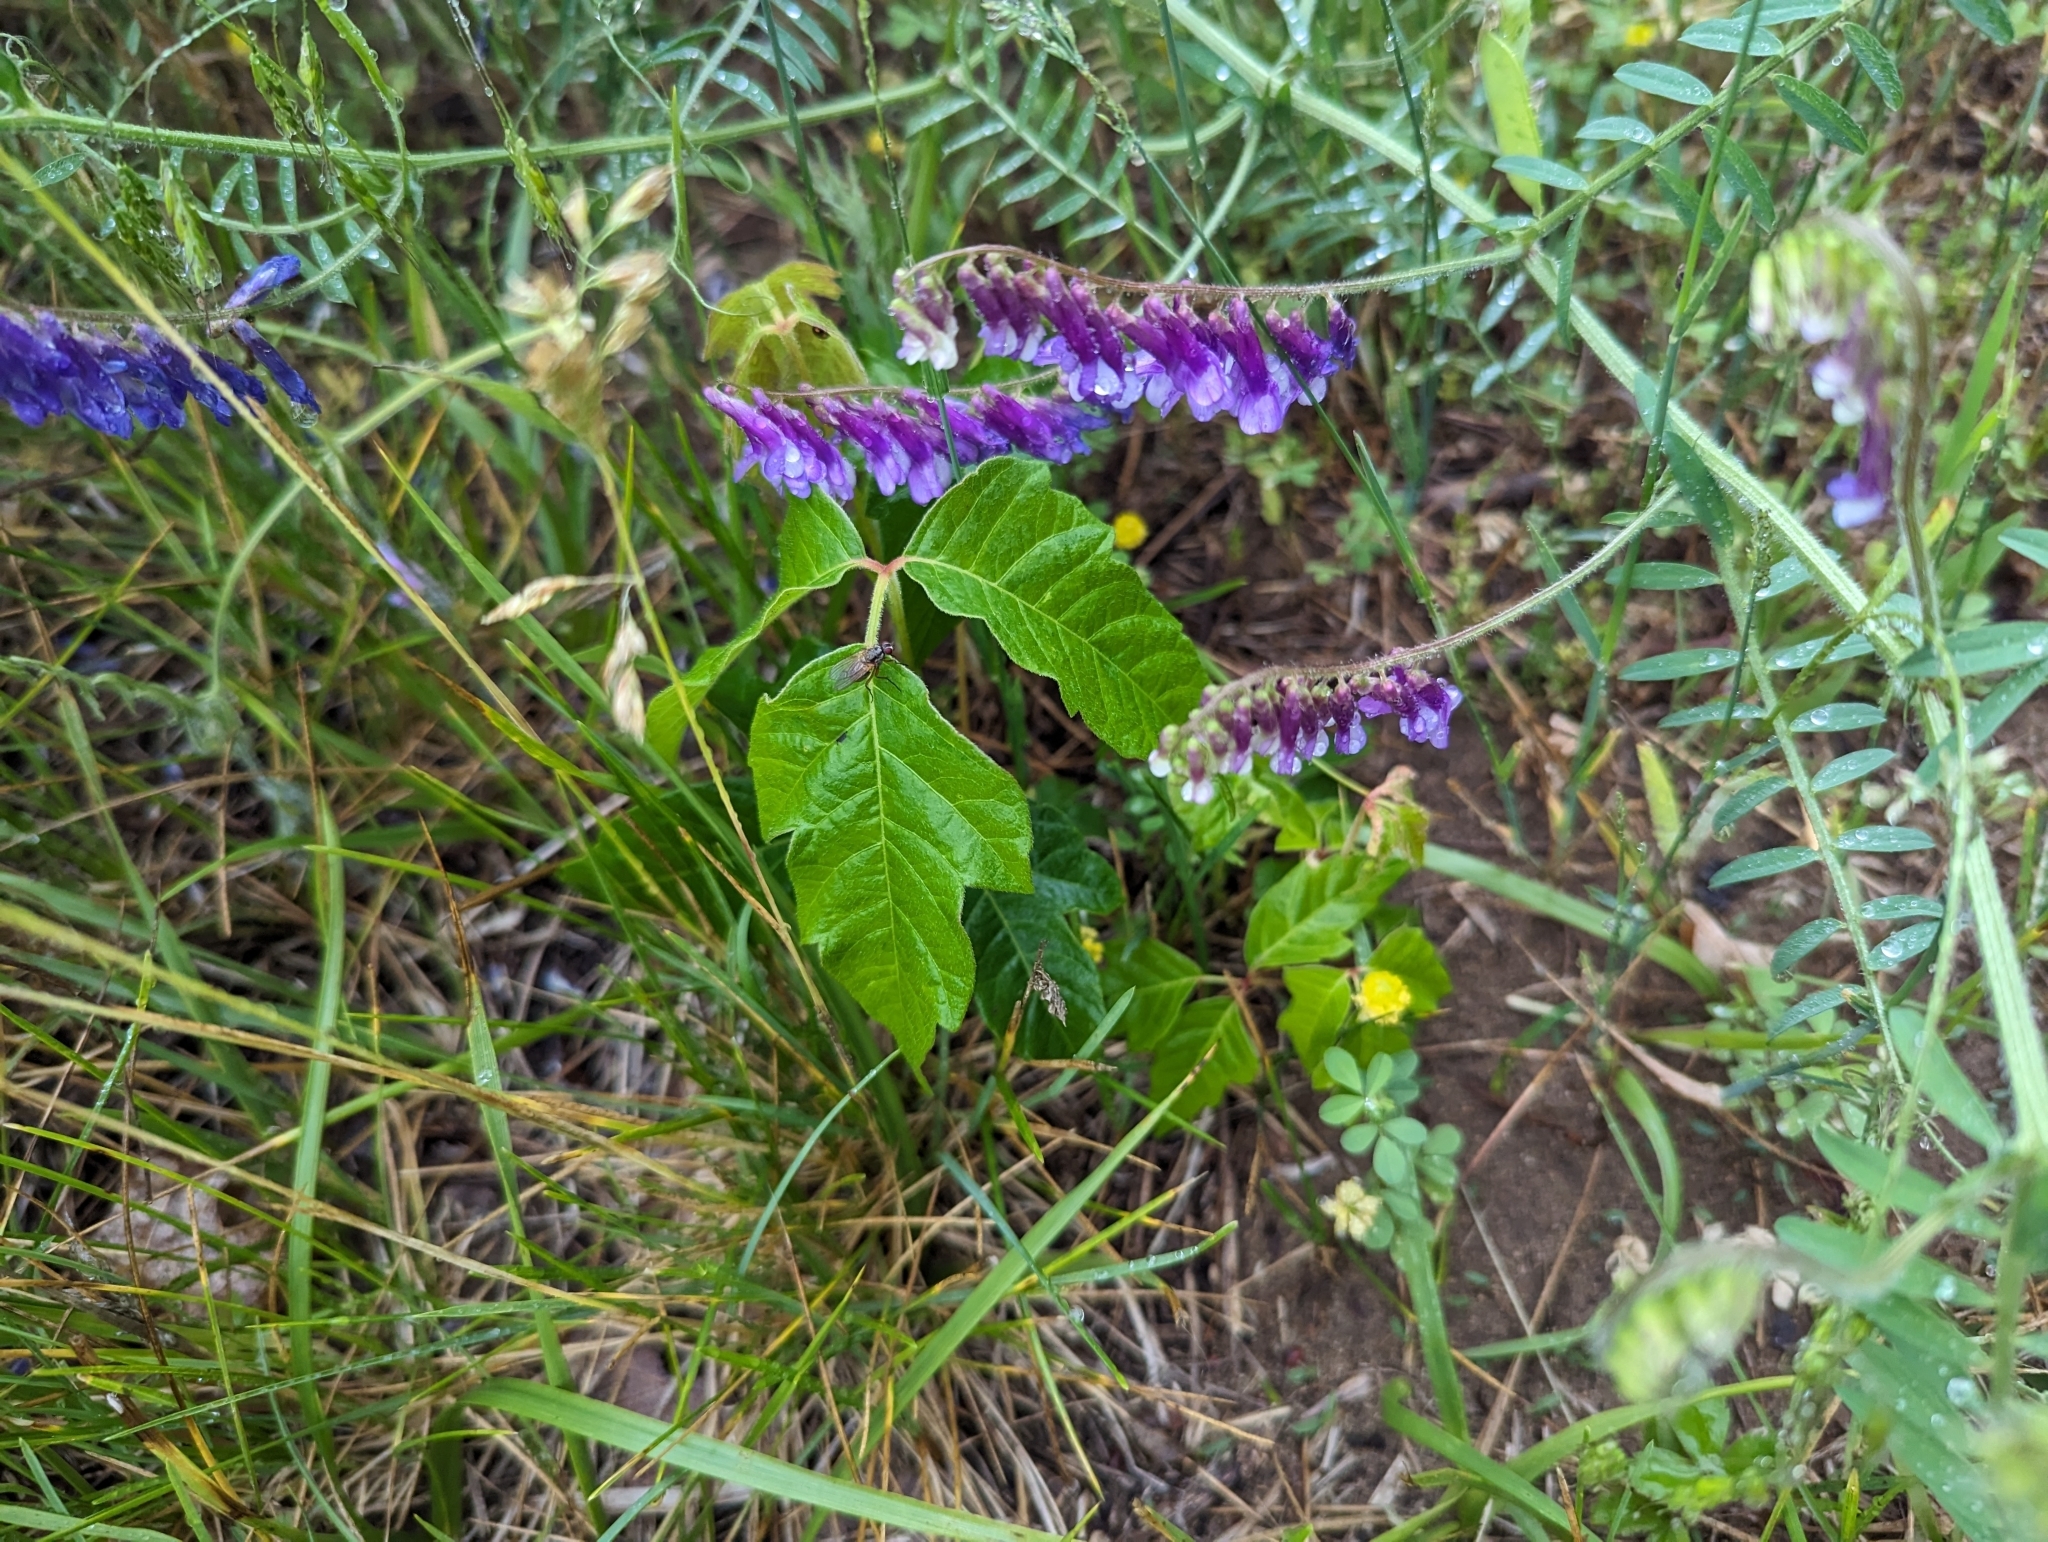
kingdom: Plantae
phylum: Tracheophyta
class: Magnoliopsida
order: Sapindales
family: Anacardiaceae
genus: Toxicodendron
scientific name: Toxicodendron radicans
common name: Poison ivy
